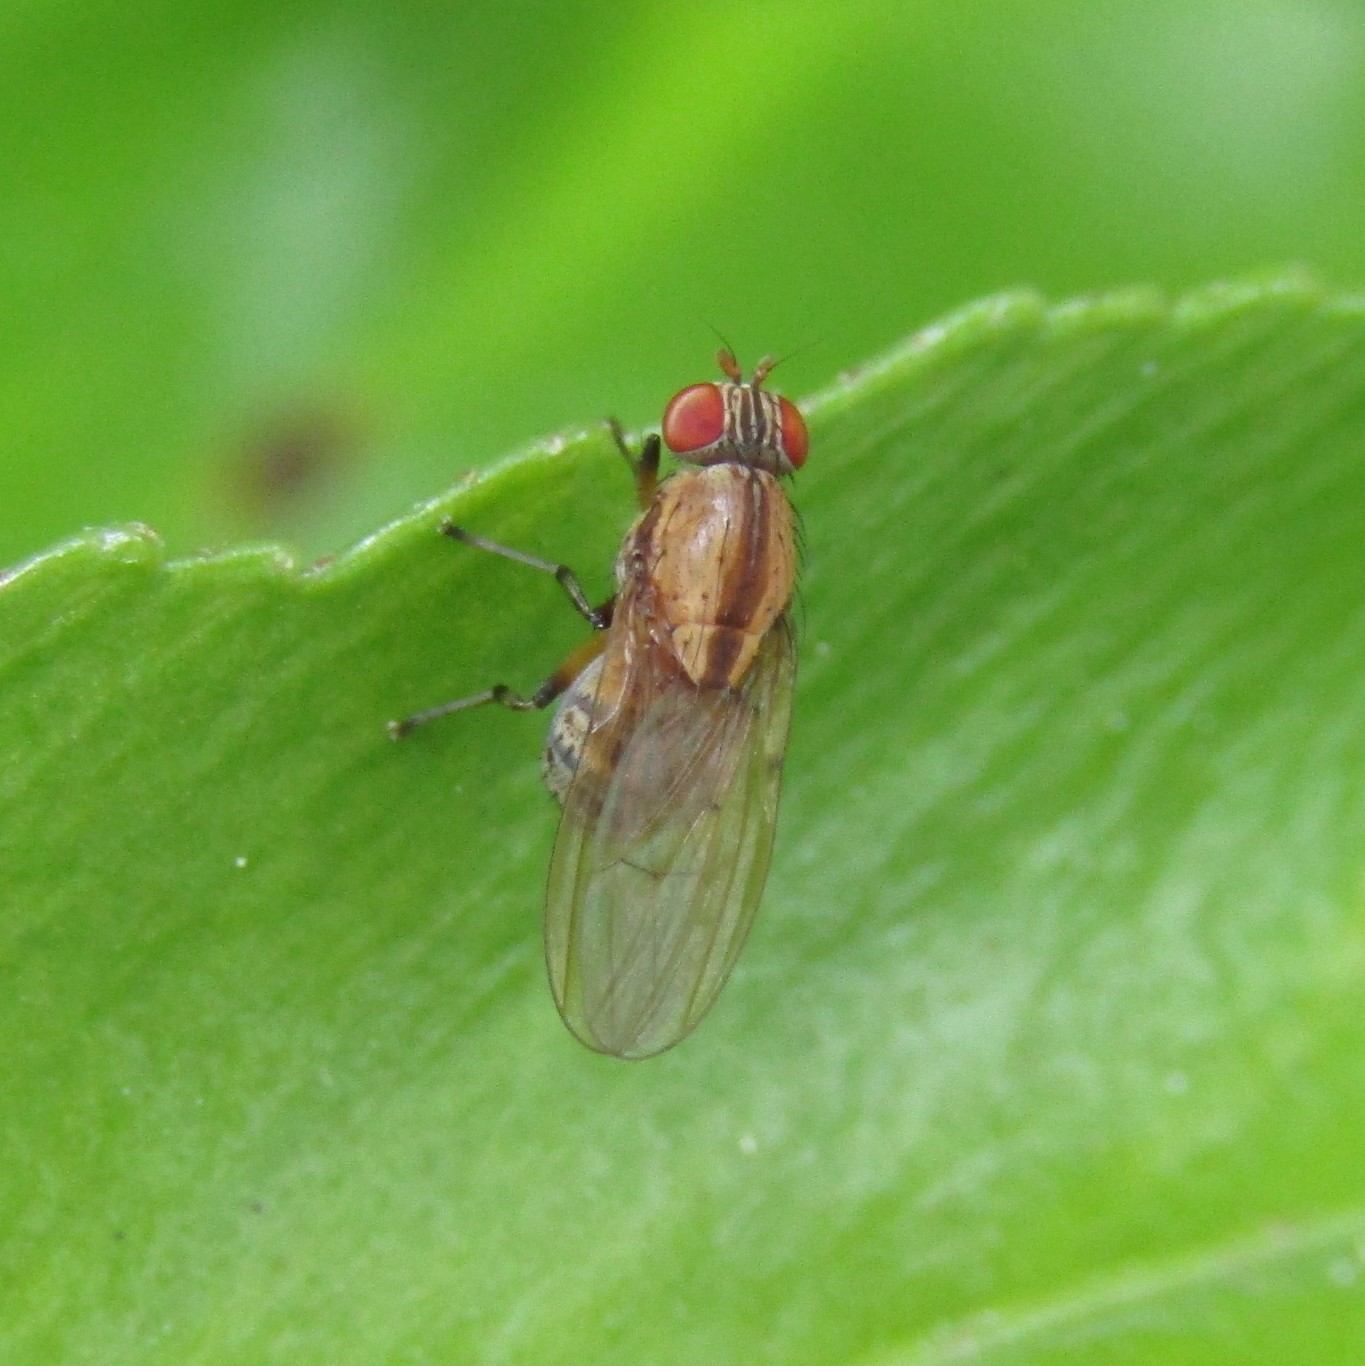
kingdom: Animalia
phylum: Arthropoda
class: Insecta
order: Diptera
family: Lauxaniidae
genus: Sapromyza
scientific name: Sapromyza neozelandica
